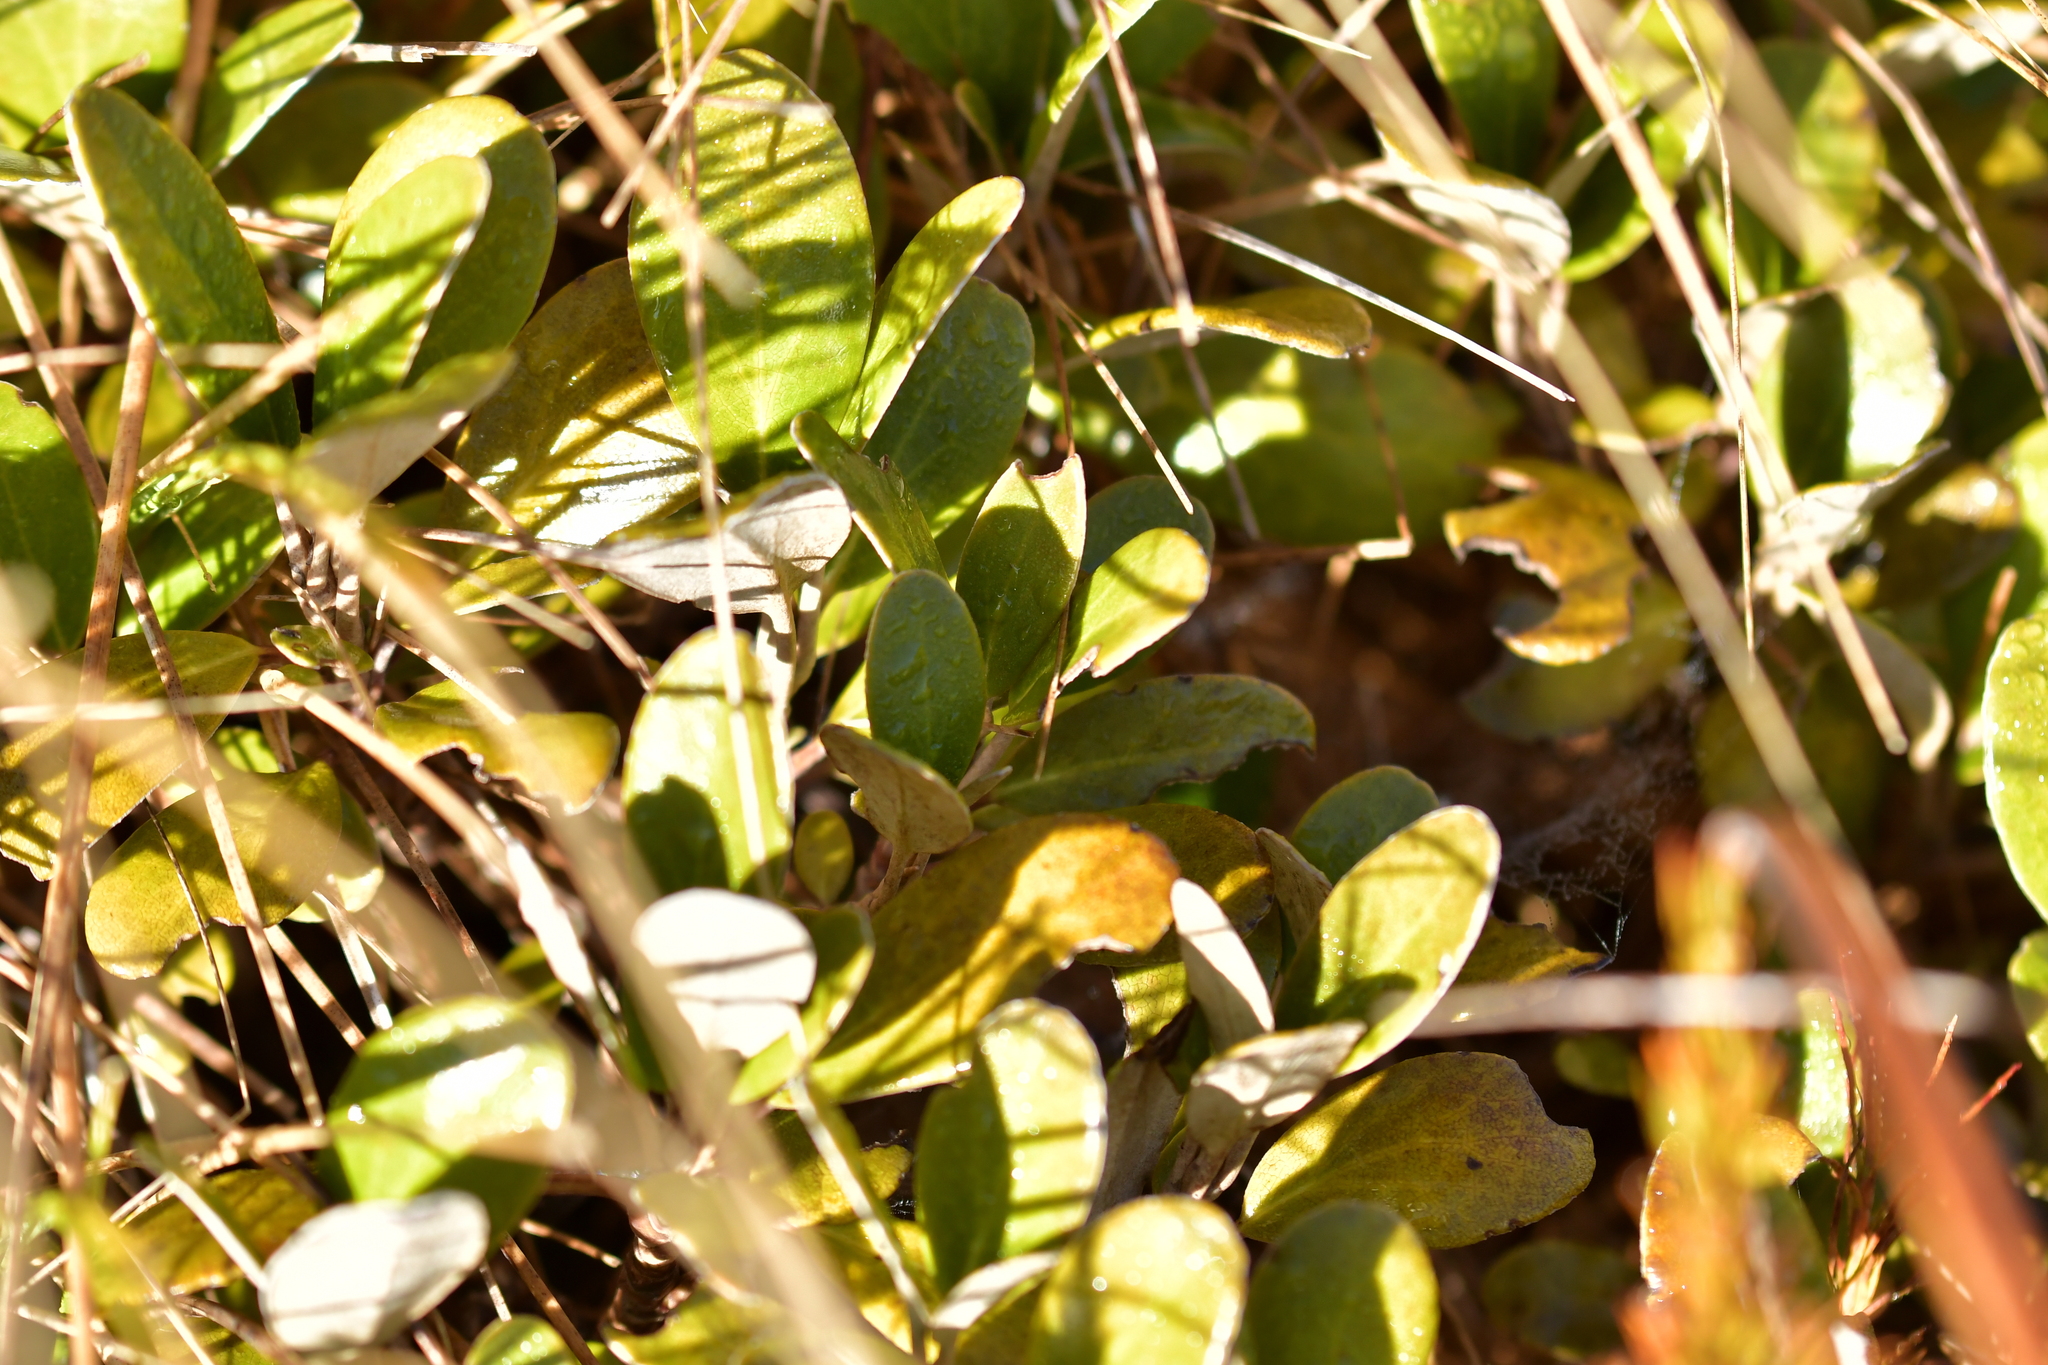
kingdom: Plantae
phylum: Tracheophyta
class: Magnoliopsida
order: Asterales
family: Asteraceae
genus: Brachyglottis
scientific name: Brachyglottis bidwillii
